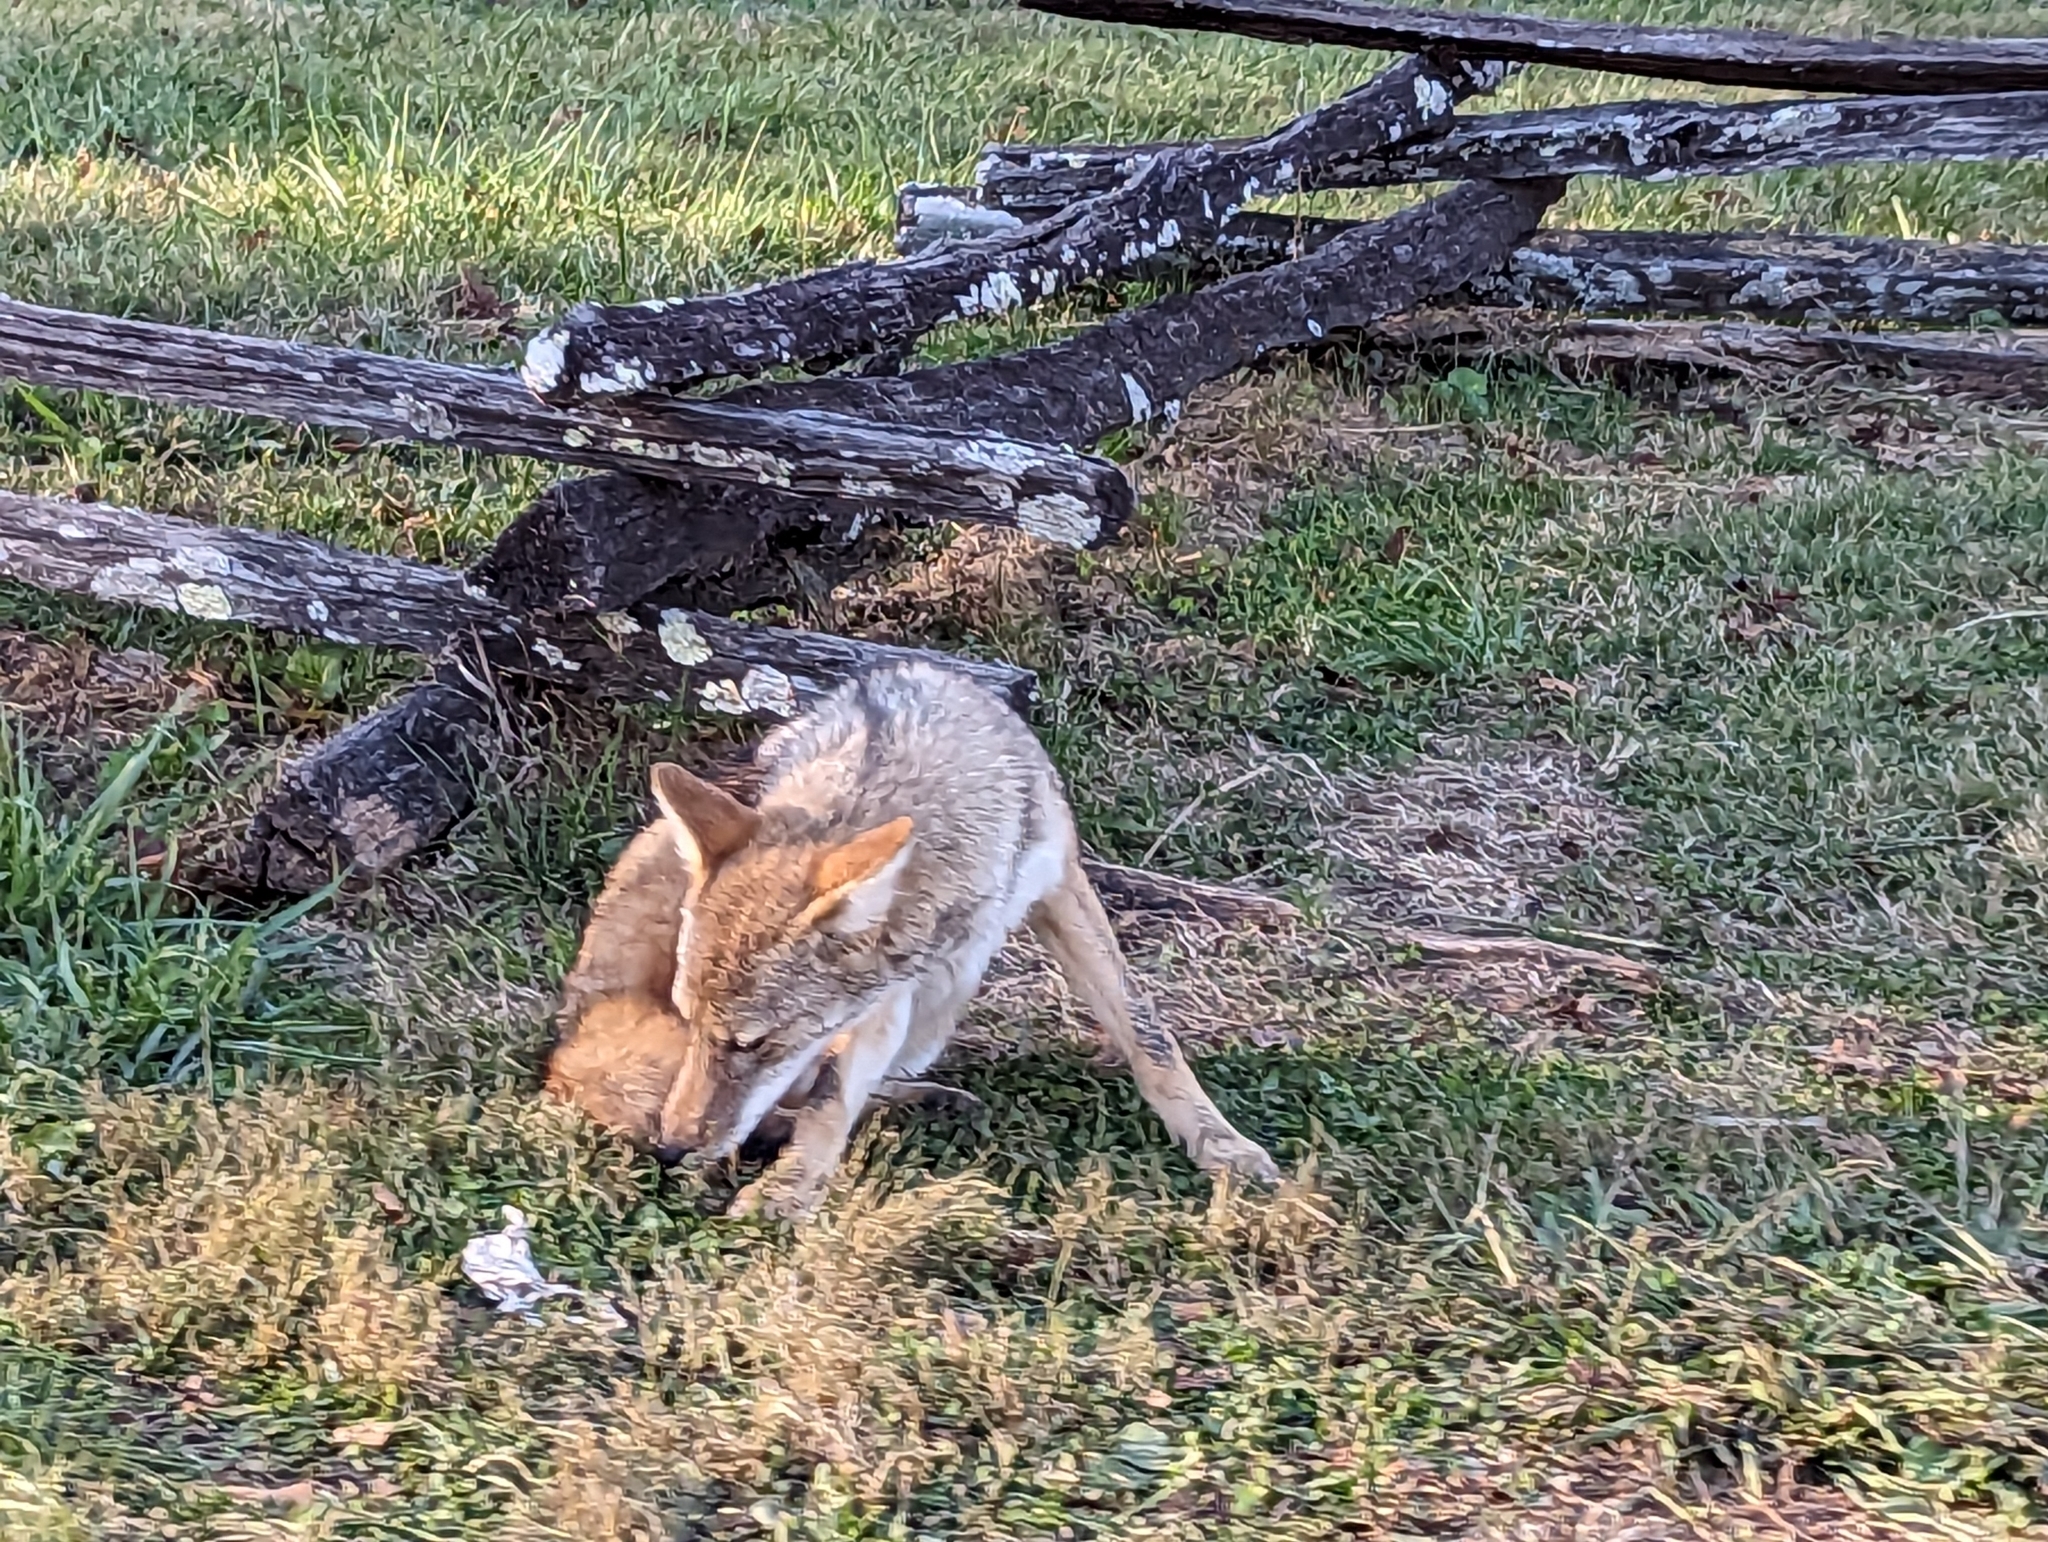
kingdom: Animalia
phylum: Chordata
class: Mammalia
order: Carnivora
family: Canidae
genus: Canis
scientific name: Canis latrans
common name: Coyote
